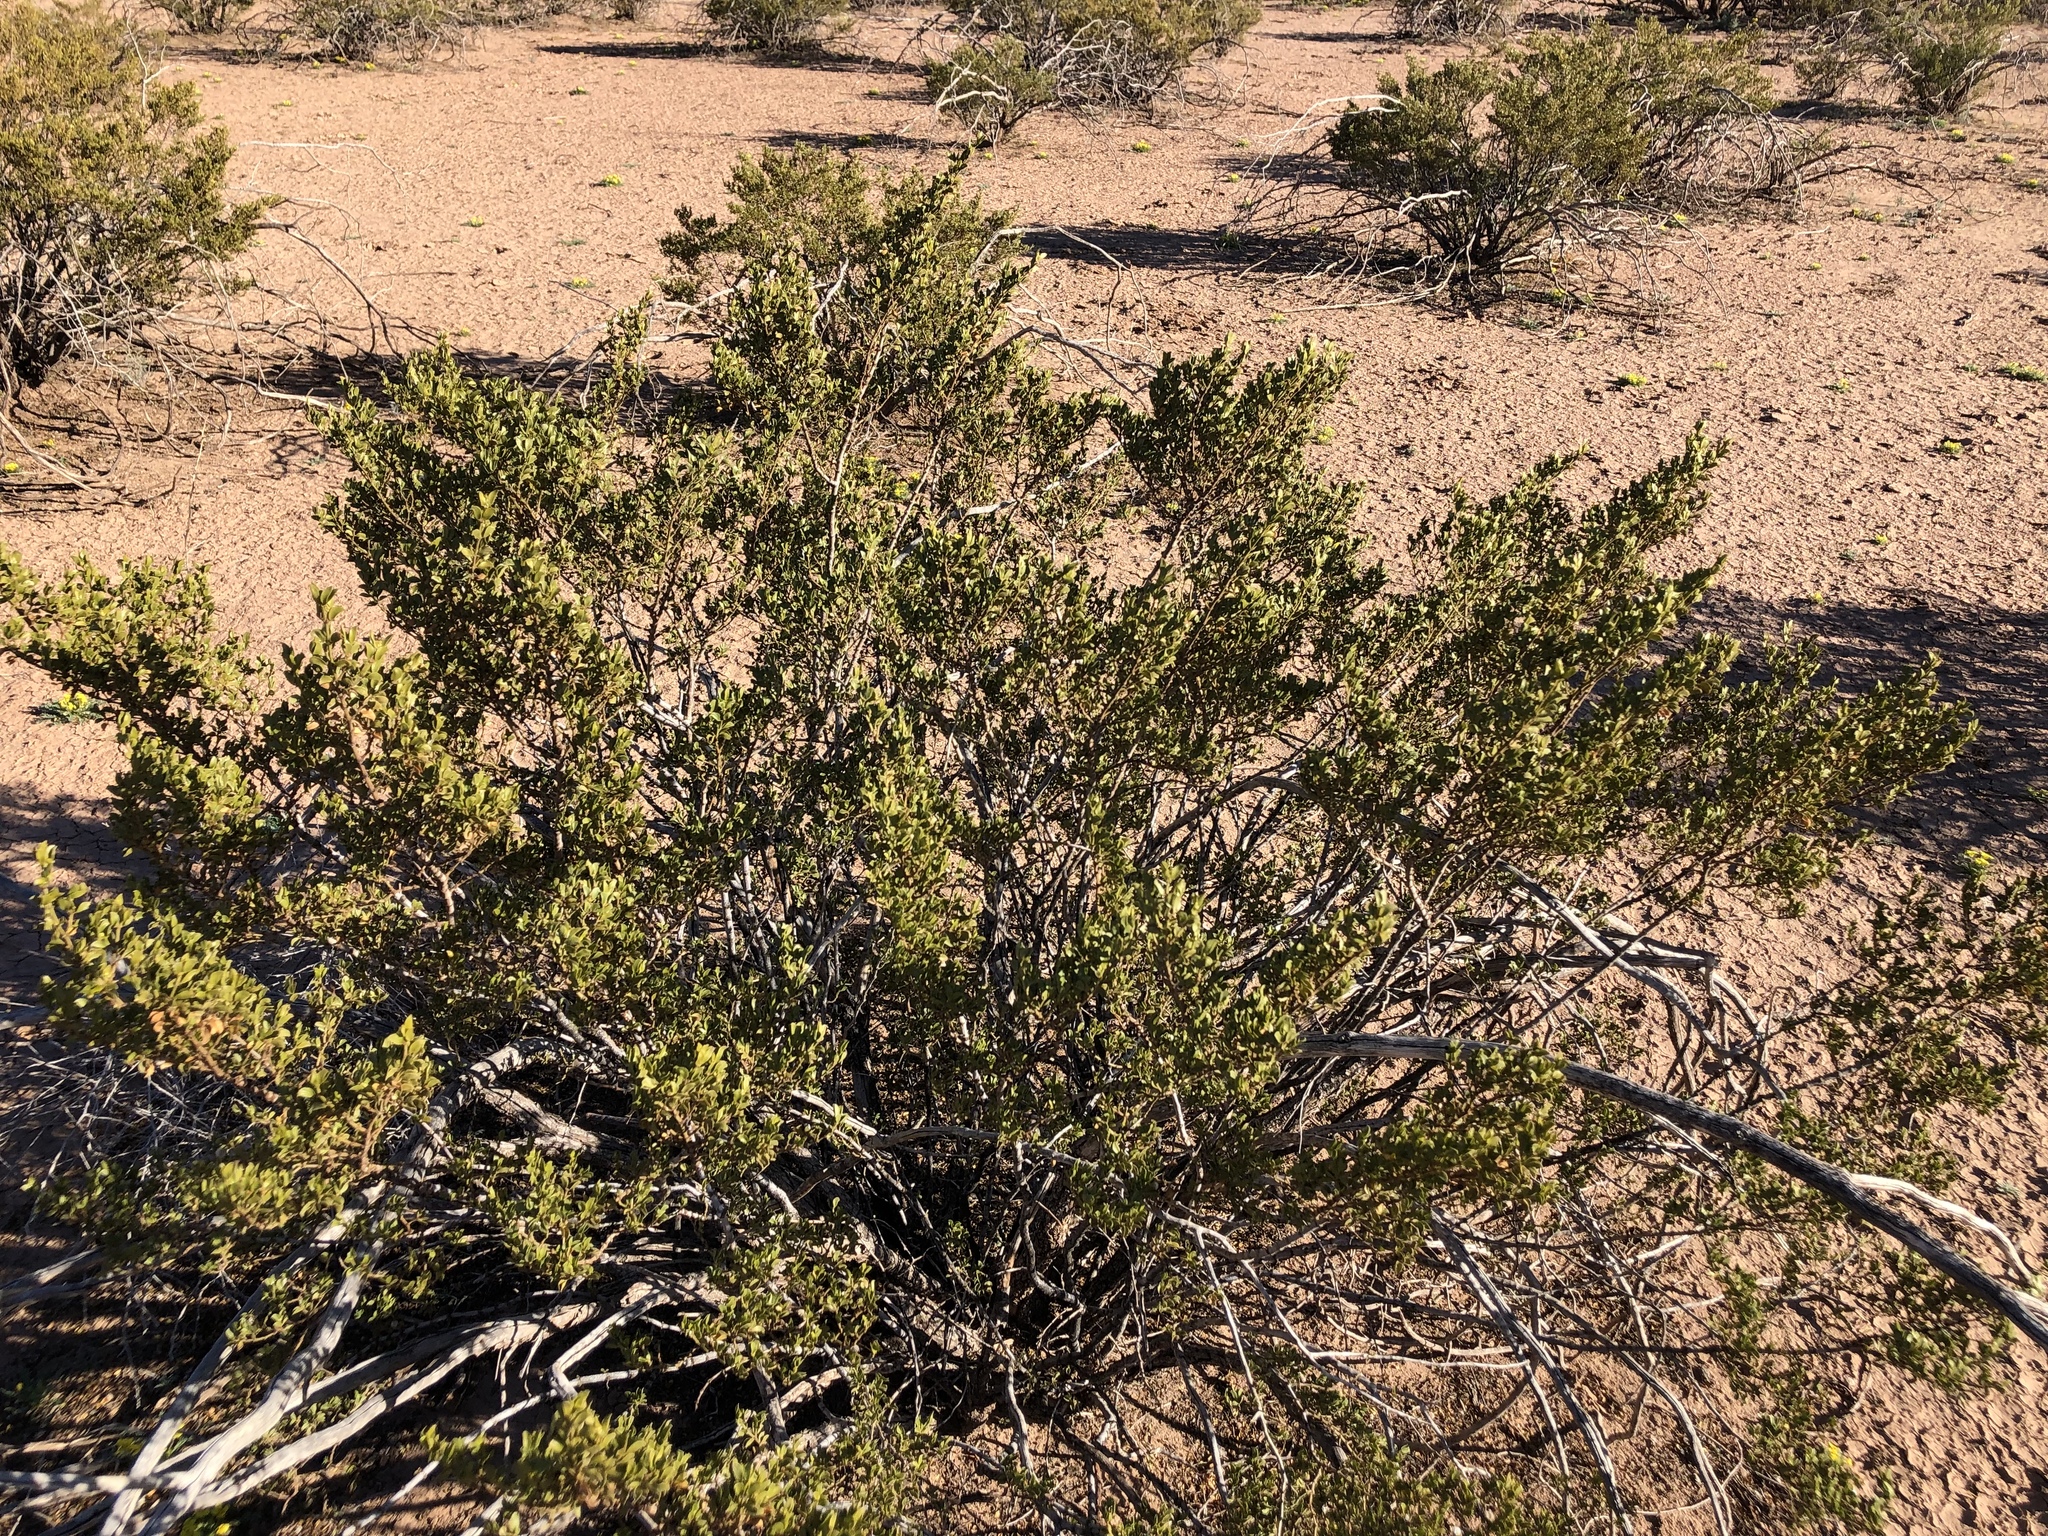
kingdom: Plantae
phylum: Tracheophyta
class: Magnoliopsida
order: Zygophyllales
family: Zygophyllaceae
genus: Larrea
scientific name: Larrea tridentata
